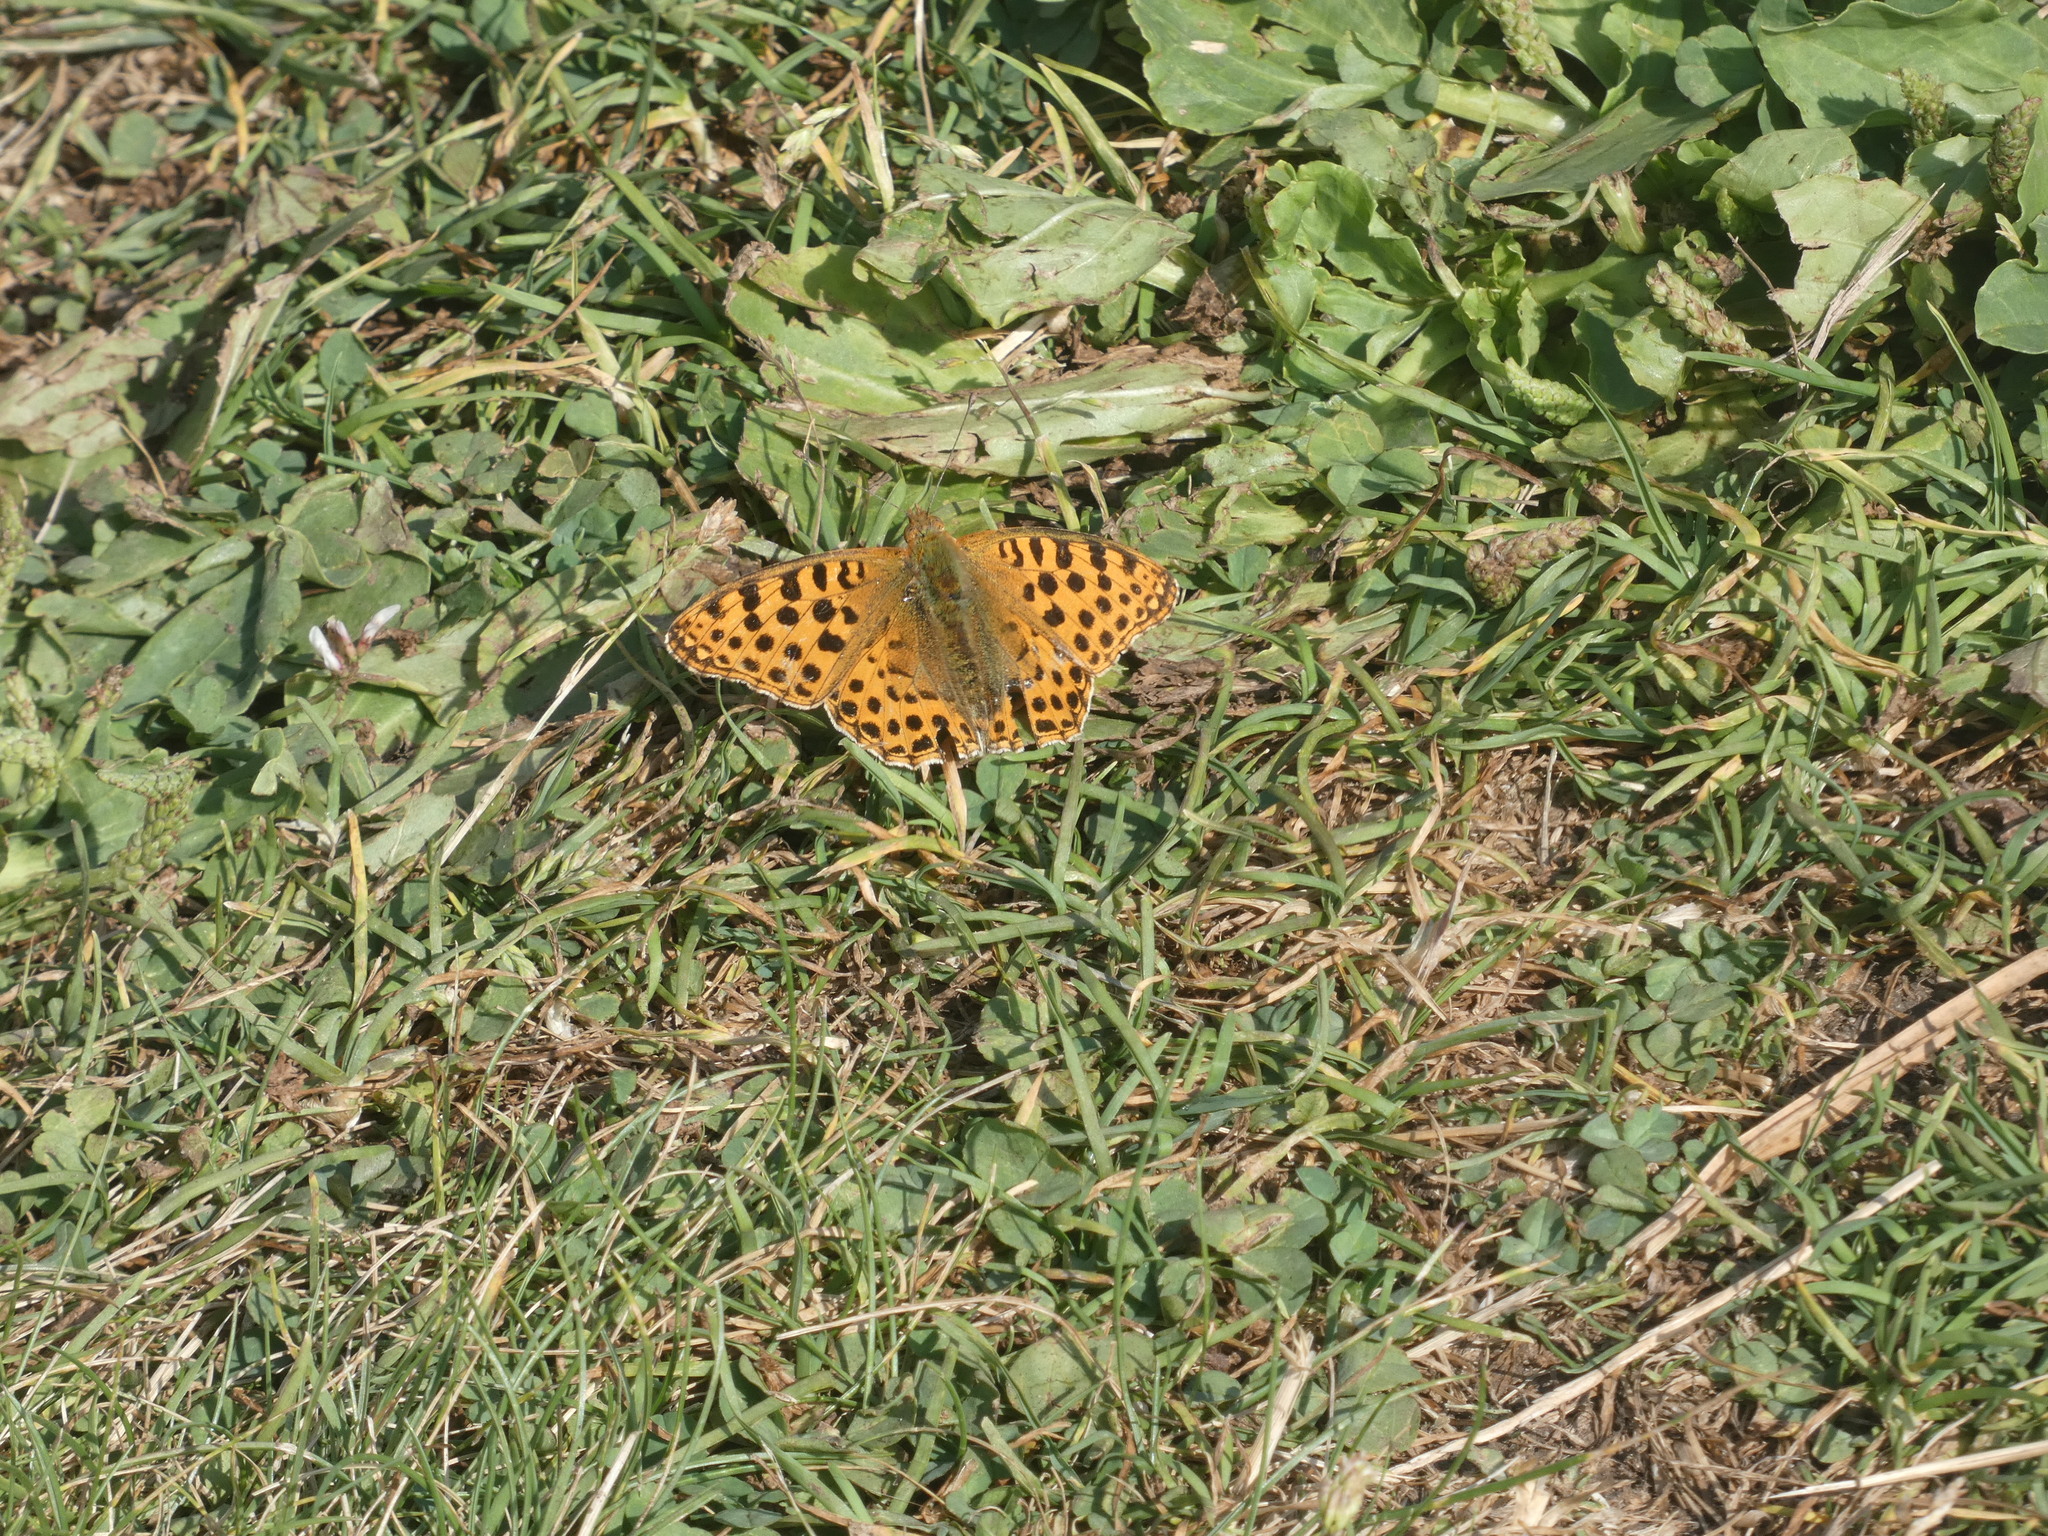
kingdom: Animalia
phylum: Arthropoda
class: Insecta
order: Lepidoptera
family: Nymphalidae
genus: Issoria
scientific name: Issoria lathonia
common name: Queen of spain fritillary
